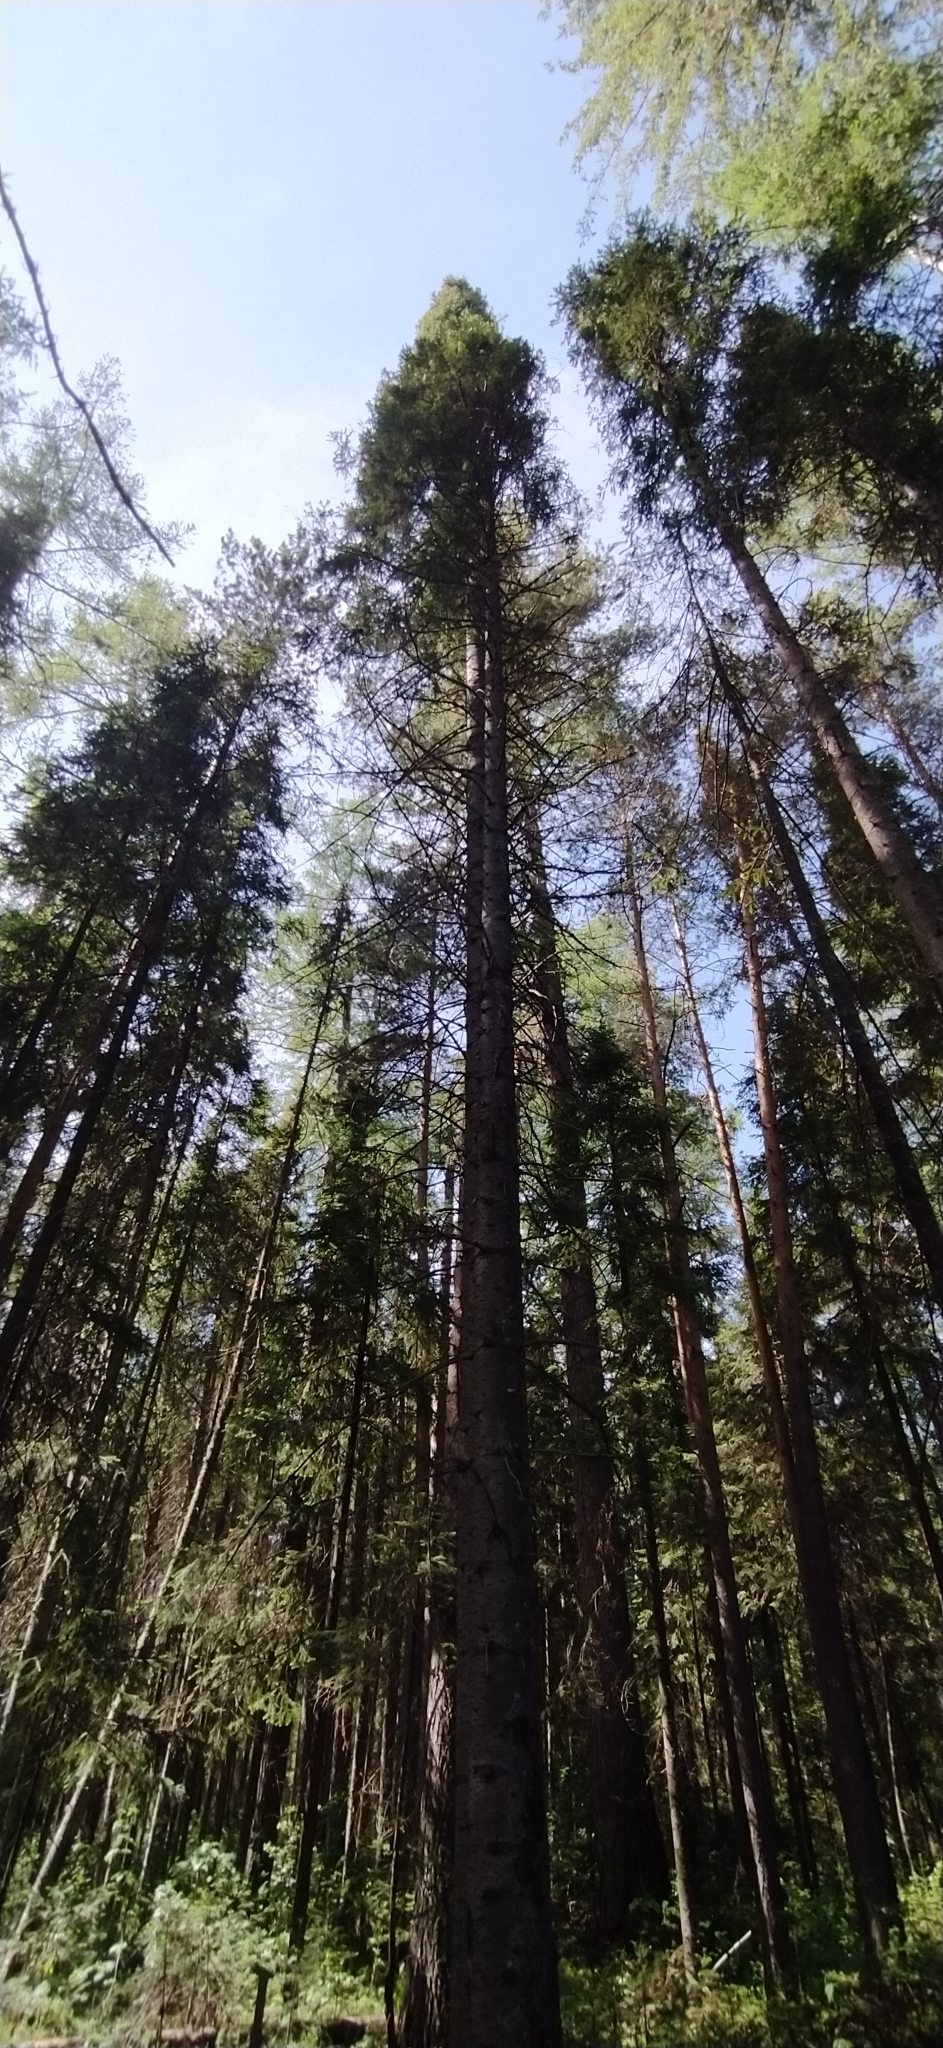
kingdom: Plantae
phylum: Tracheophyta
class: Pinopsida
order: Pinales
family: Pinaceae
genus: Abies
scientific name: Abies sibirica
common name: Siberian fir
